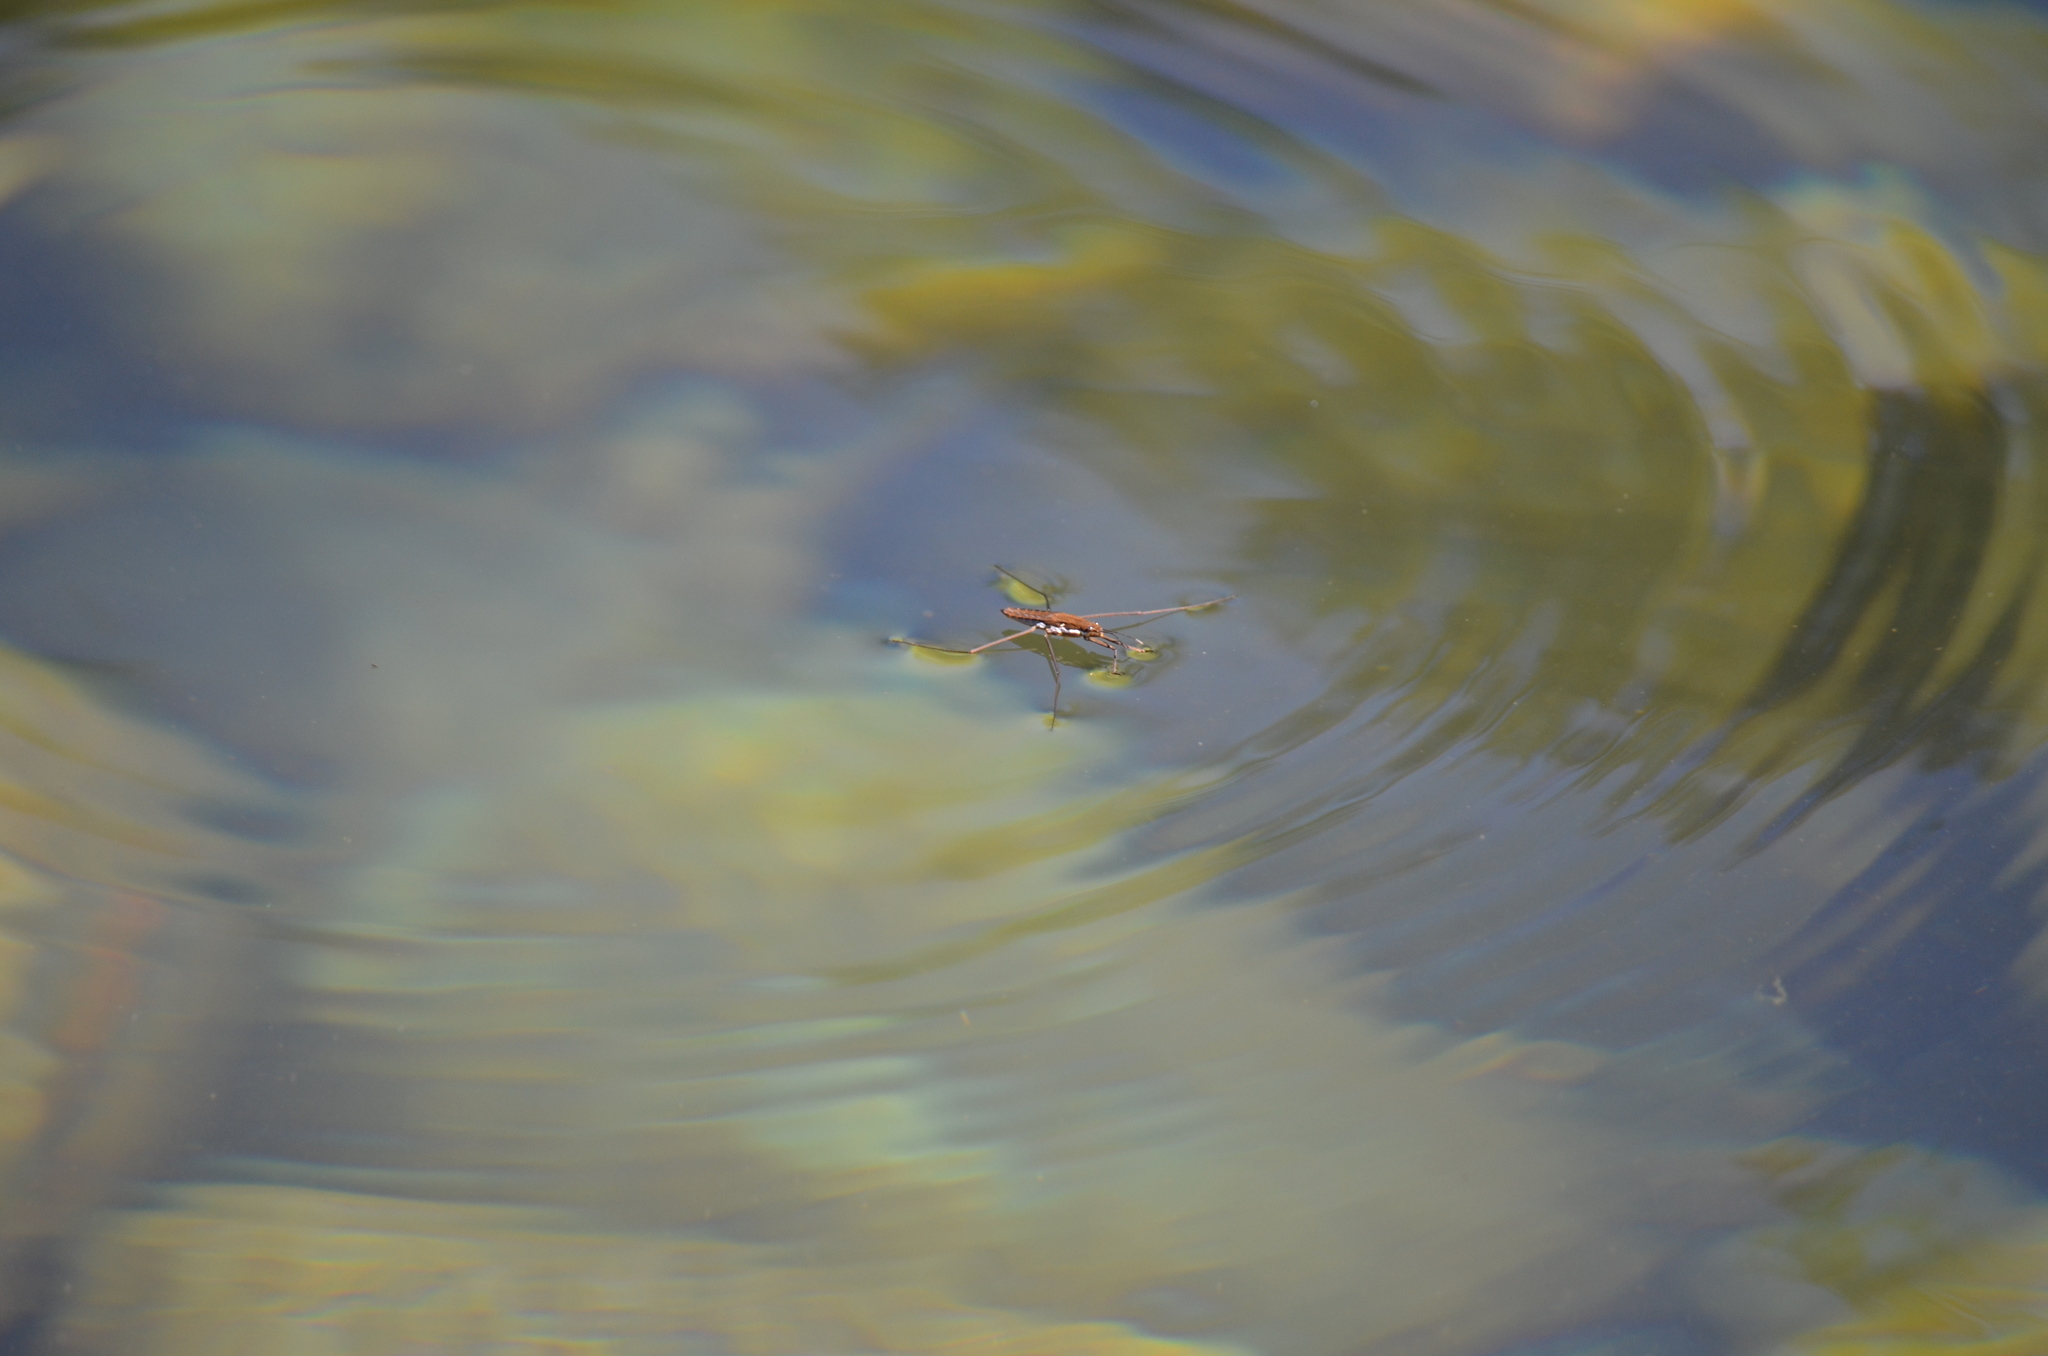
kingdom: Animalia
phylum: Arthropoda
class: Insecta
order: Hemiptera
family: Gerridae
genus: Aquarius
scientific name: Aquarius remigis
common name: Common water strider
